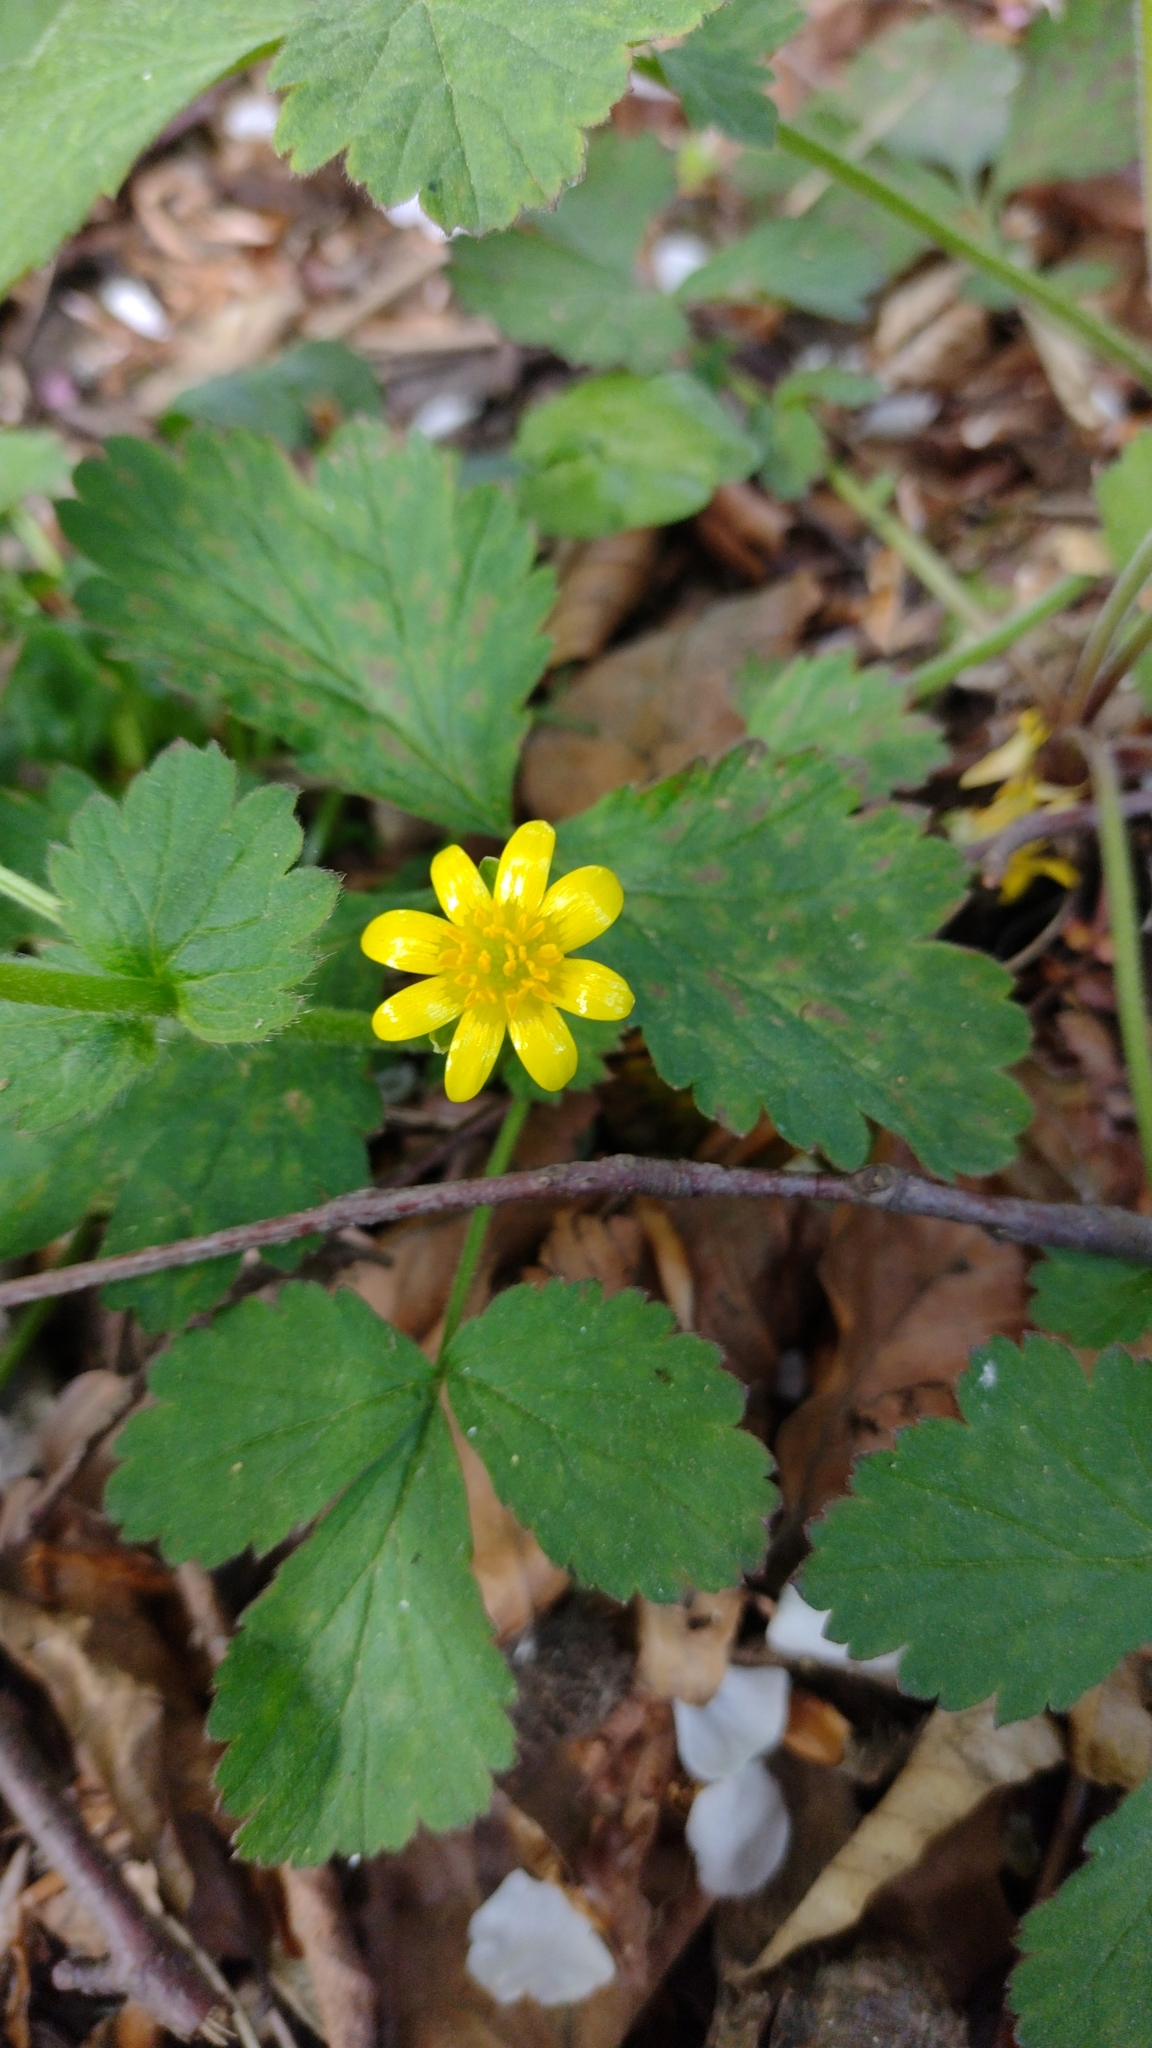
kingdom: Plantae
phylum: Tracheophyta
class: Magnoliopsida
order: Ranunculales
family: Ranunculaceae
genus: Ficaria
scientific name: Ficaria verna
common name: Lesser celandine
